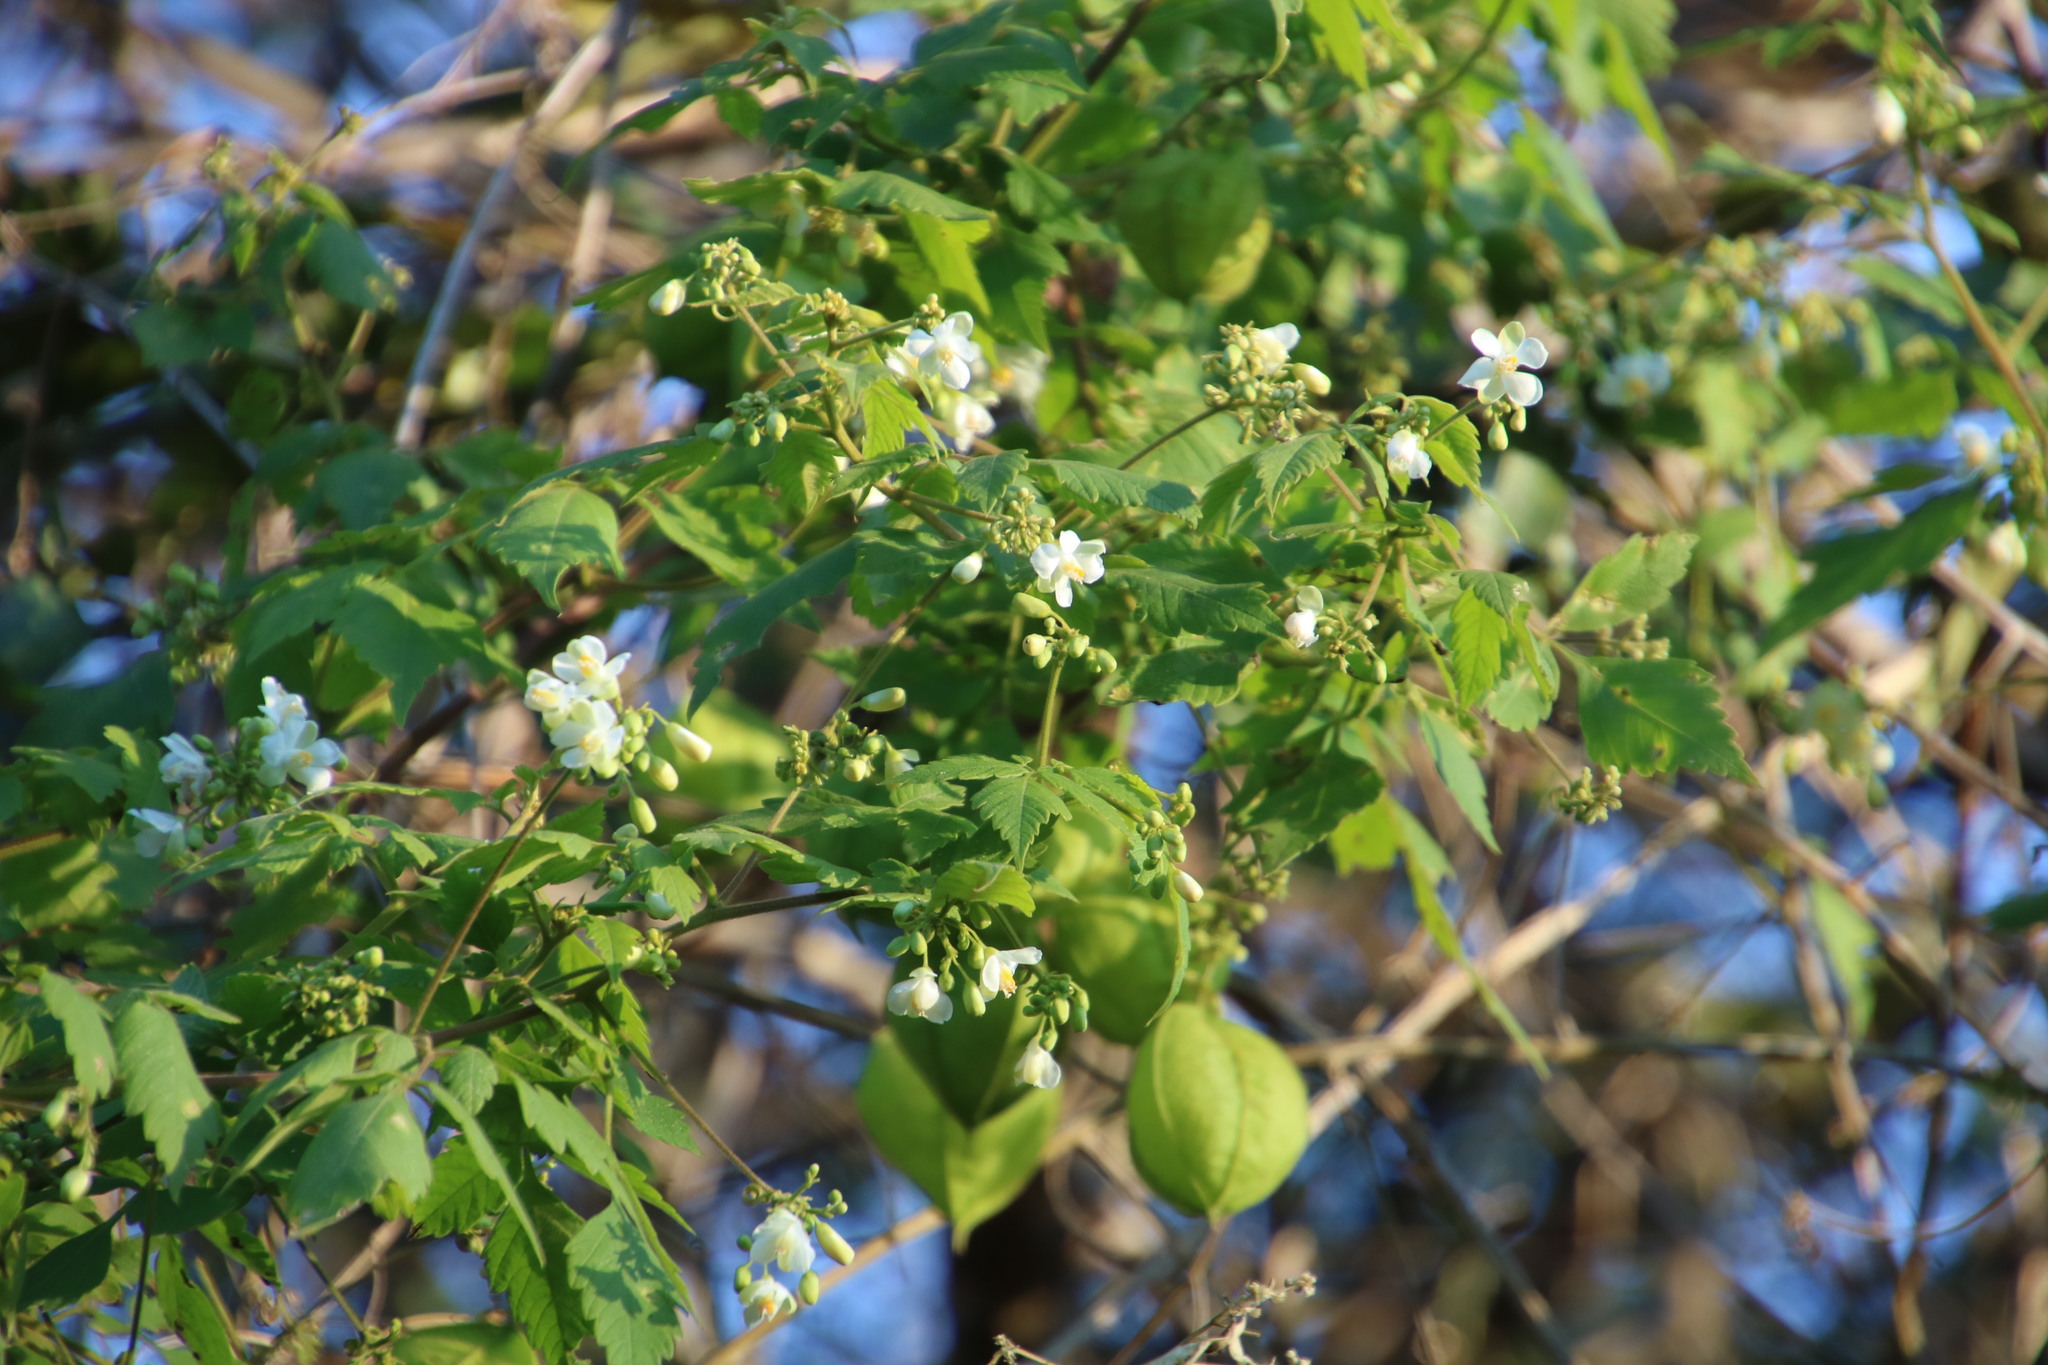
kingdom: Plantae
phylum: Tracheophyta
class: Magnoliopsida
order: Sapindales
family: Sapindaceae
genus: Cardiospermum
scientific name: Cardiospermum grandiflorum
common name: Balloon vine
